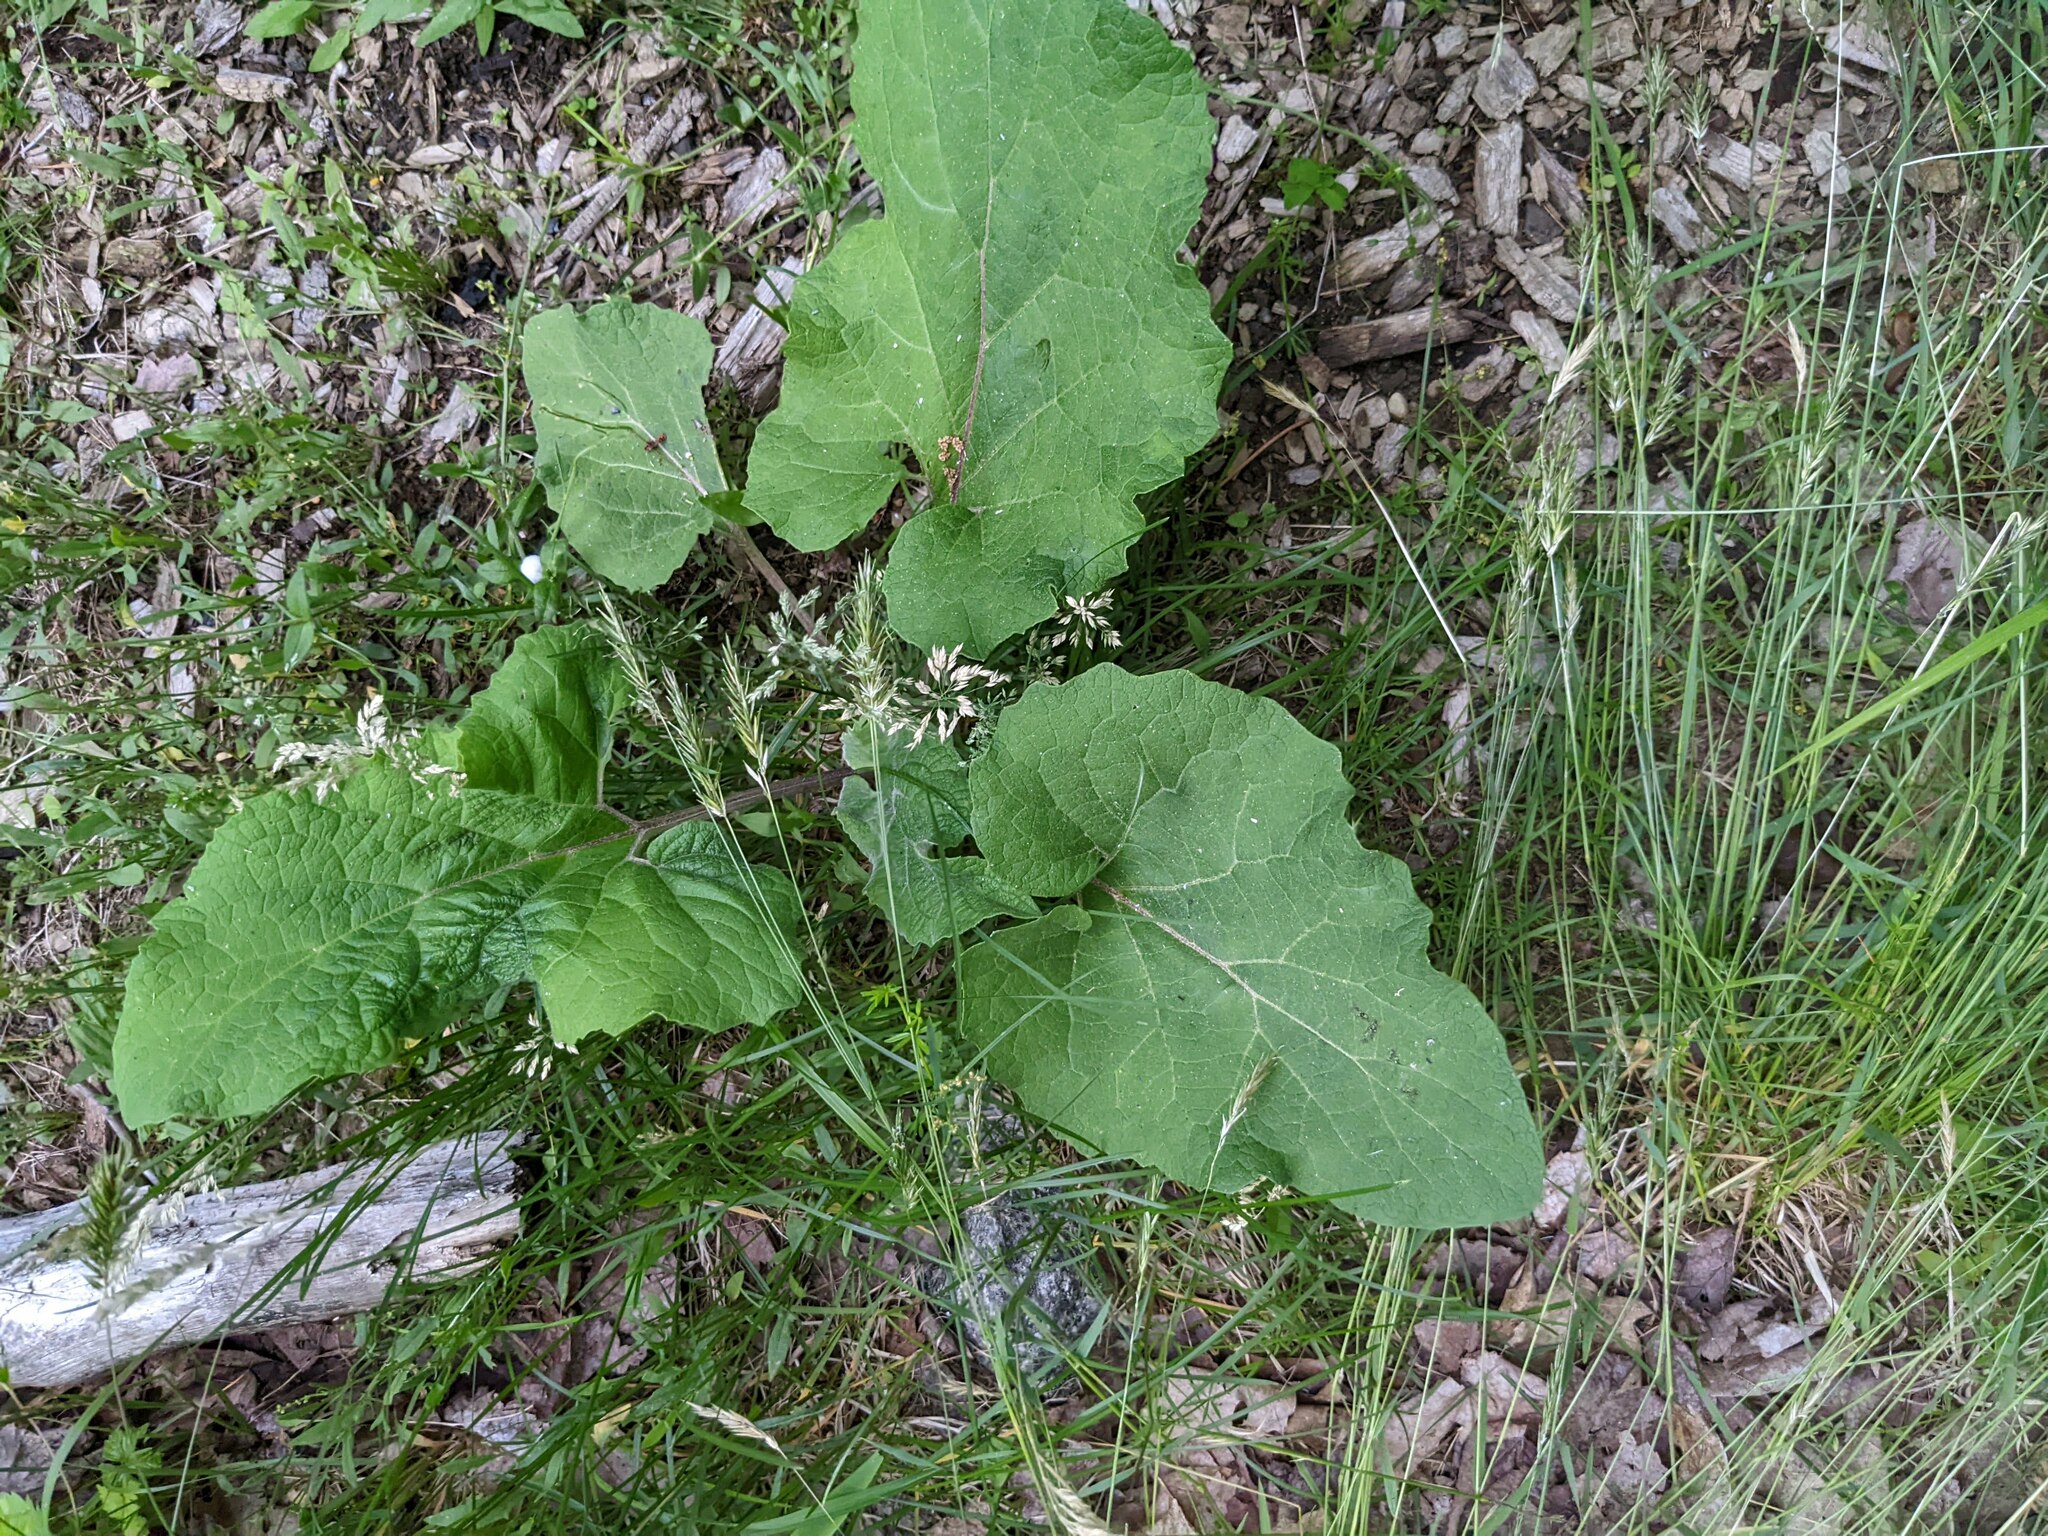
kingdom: Plantae
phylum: Tracheophyta
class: Magnoliopsida
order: Asterales
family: Asteraceae
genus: Arctium
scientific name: Arctium
